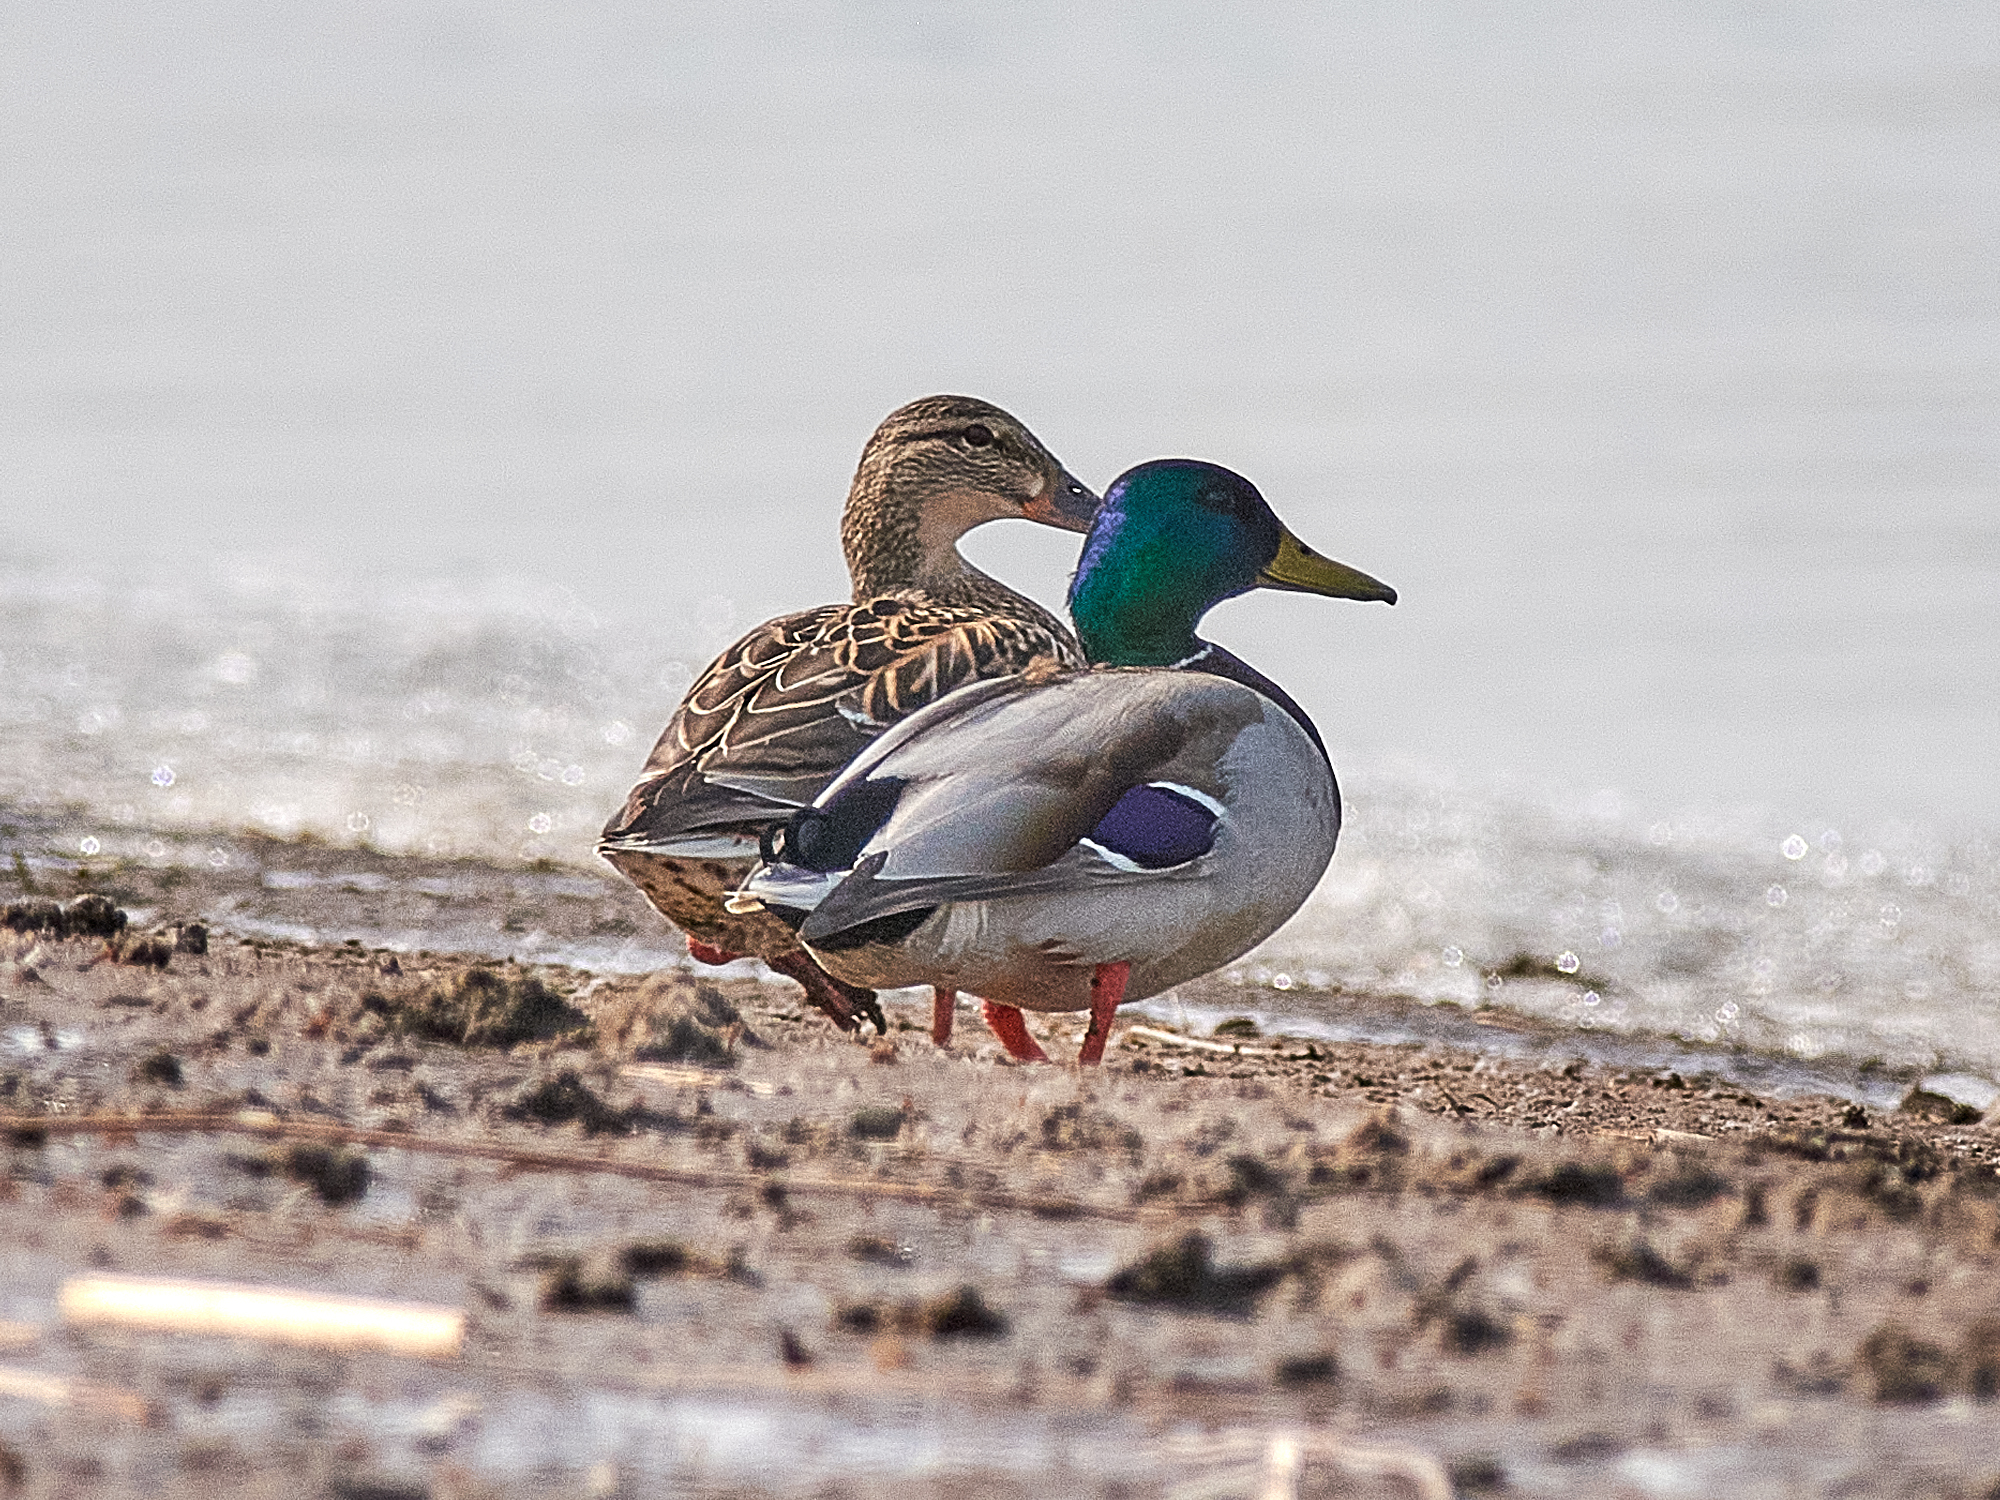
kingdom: Animalia
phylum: Chordata
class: Aves
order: Anseriformes
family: Anatidae
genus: Anas
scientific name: Anas platyrhynchos
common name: Mallard
